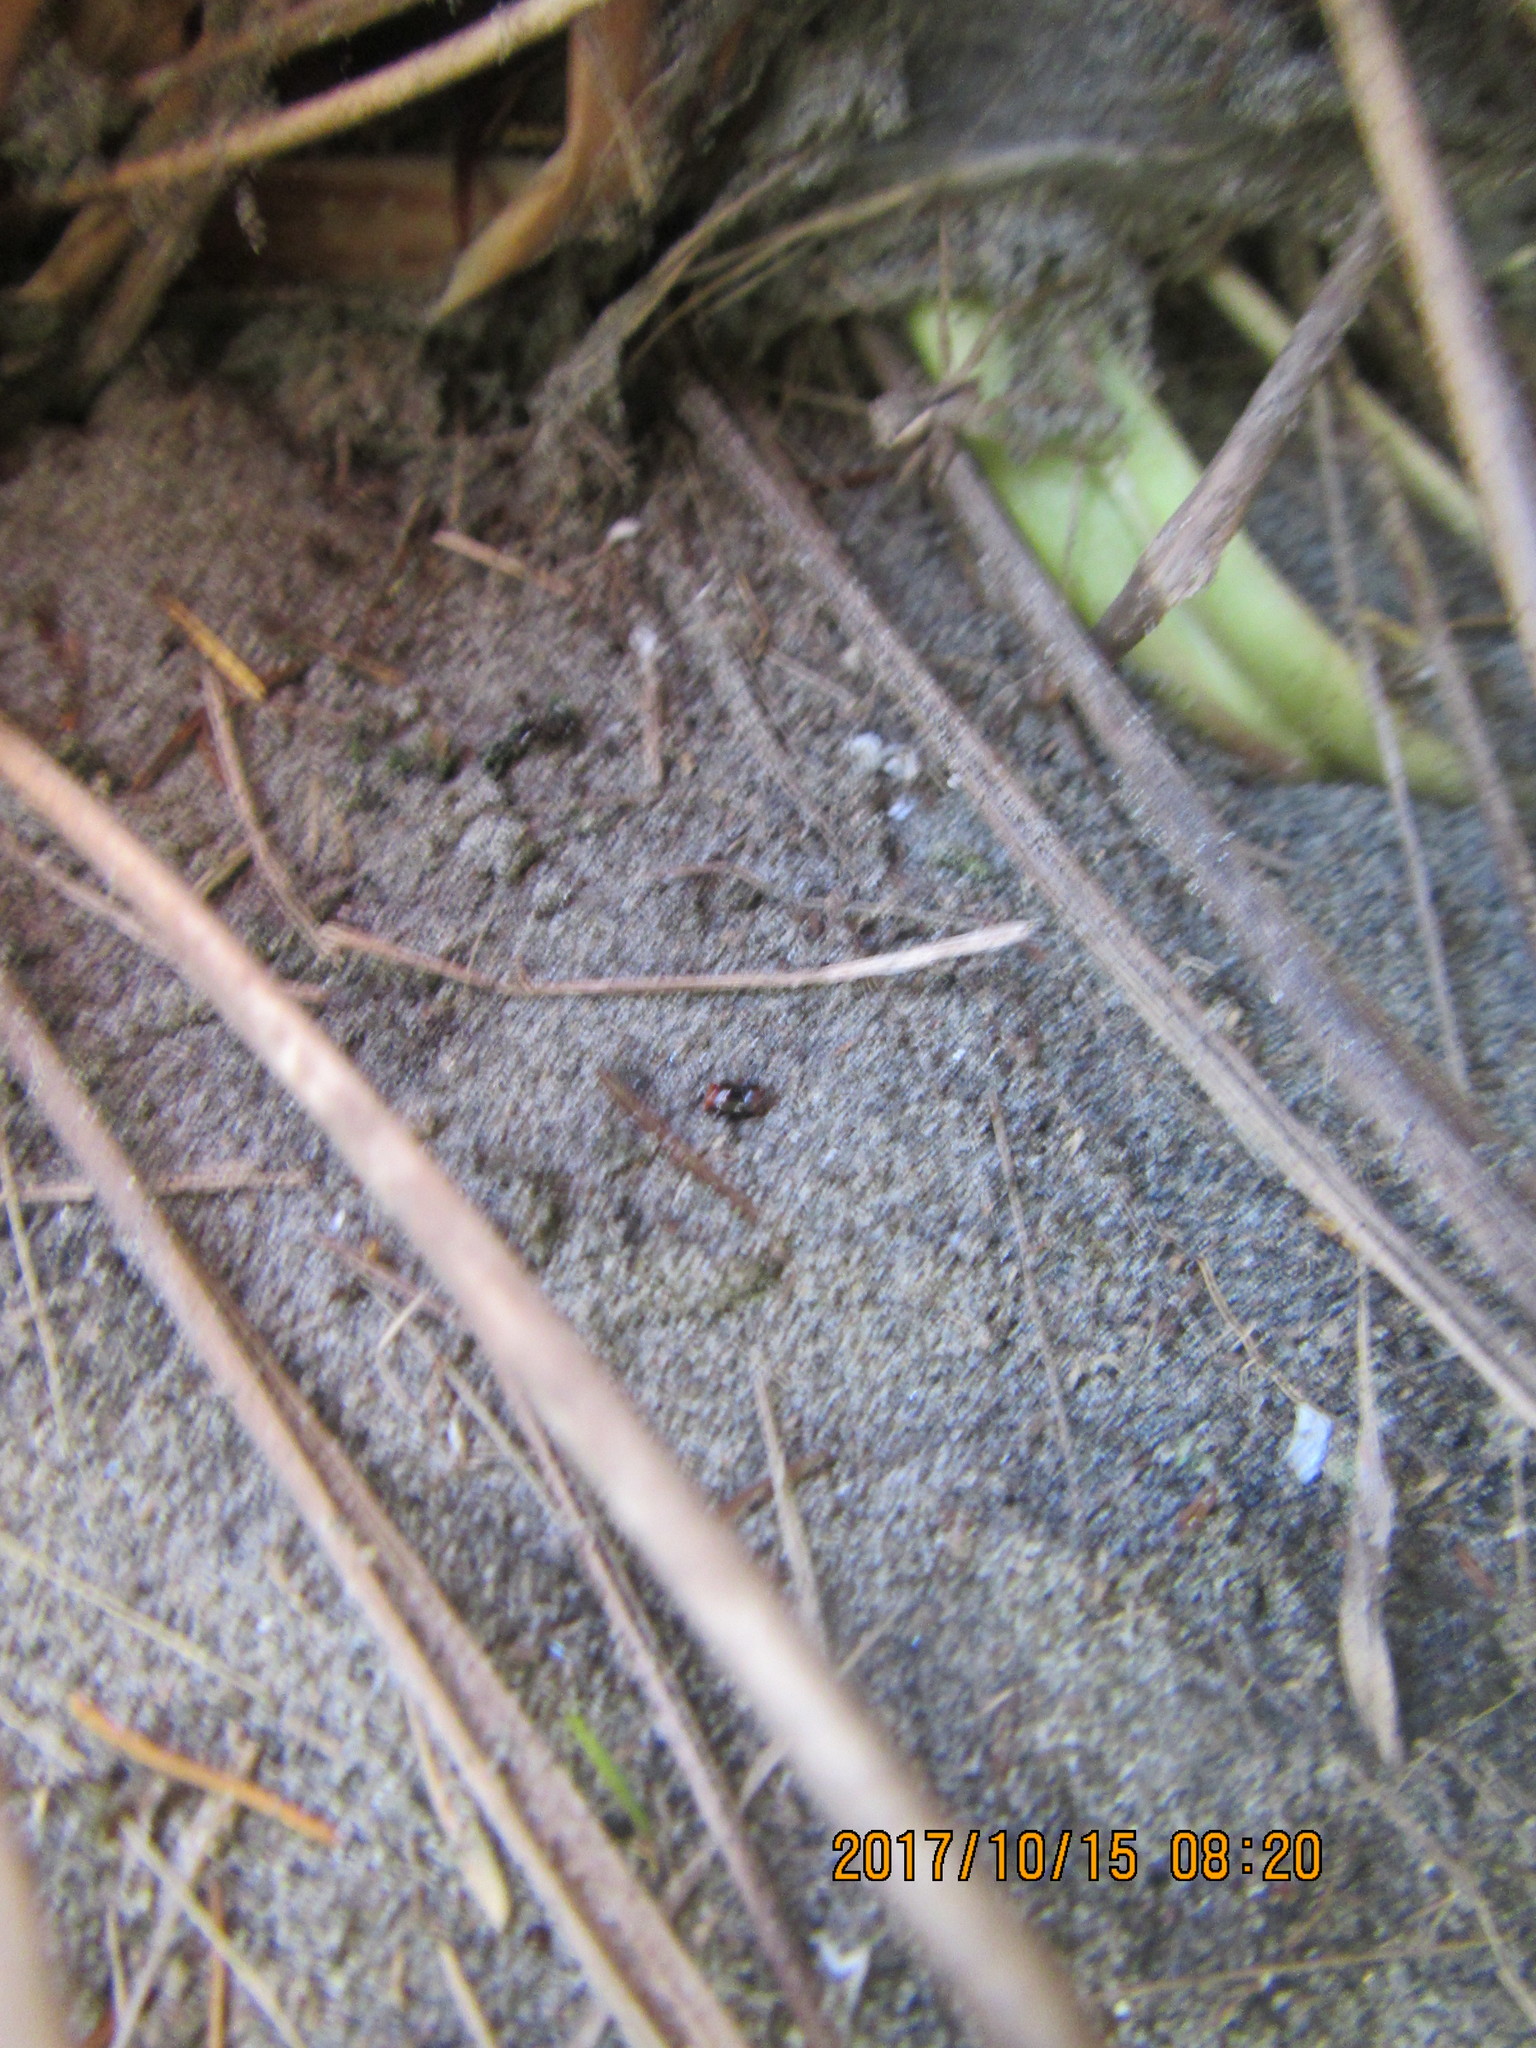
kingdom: Animalia
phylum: Arthropoda
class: Arachnida
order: Araneae
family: Thomisidae
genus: Sidymella
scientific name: Sidymella trapezia
